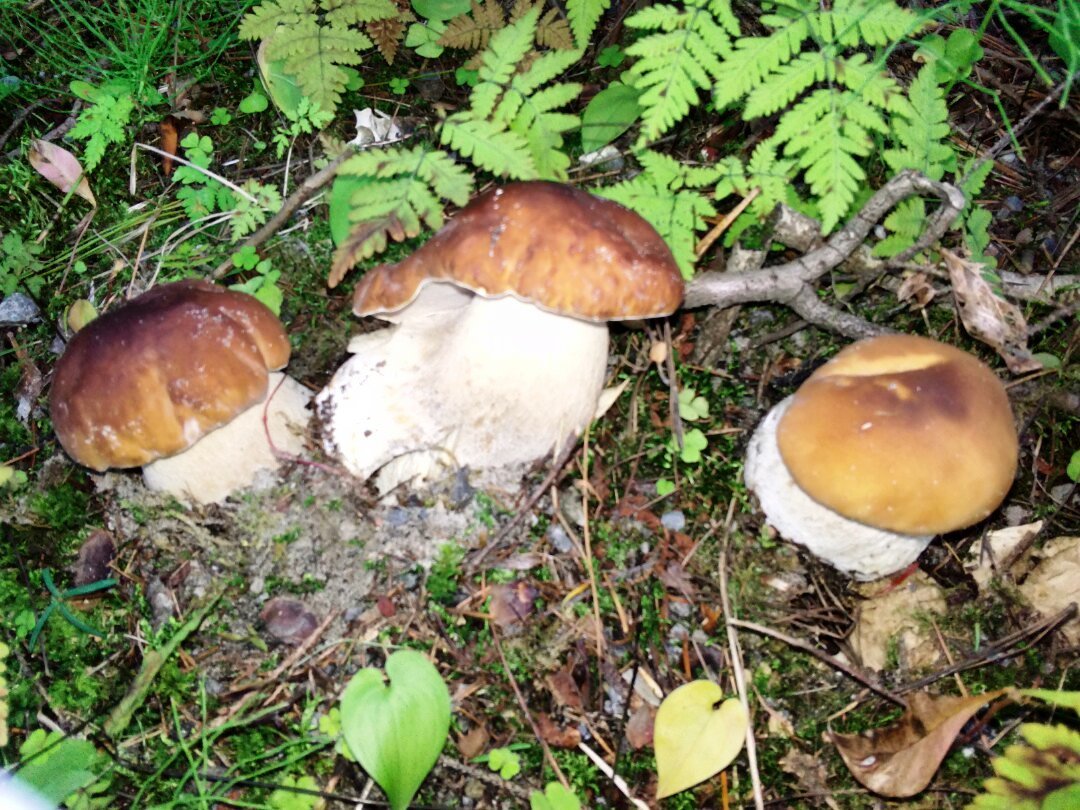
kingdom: Fungi
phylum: Basidiomycota
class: Agaricomycetes
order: Boletales
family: Boletaceae
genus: Boletus
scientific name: Boletus edulis
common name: Cep
